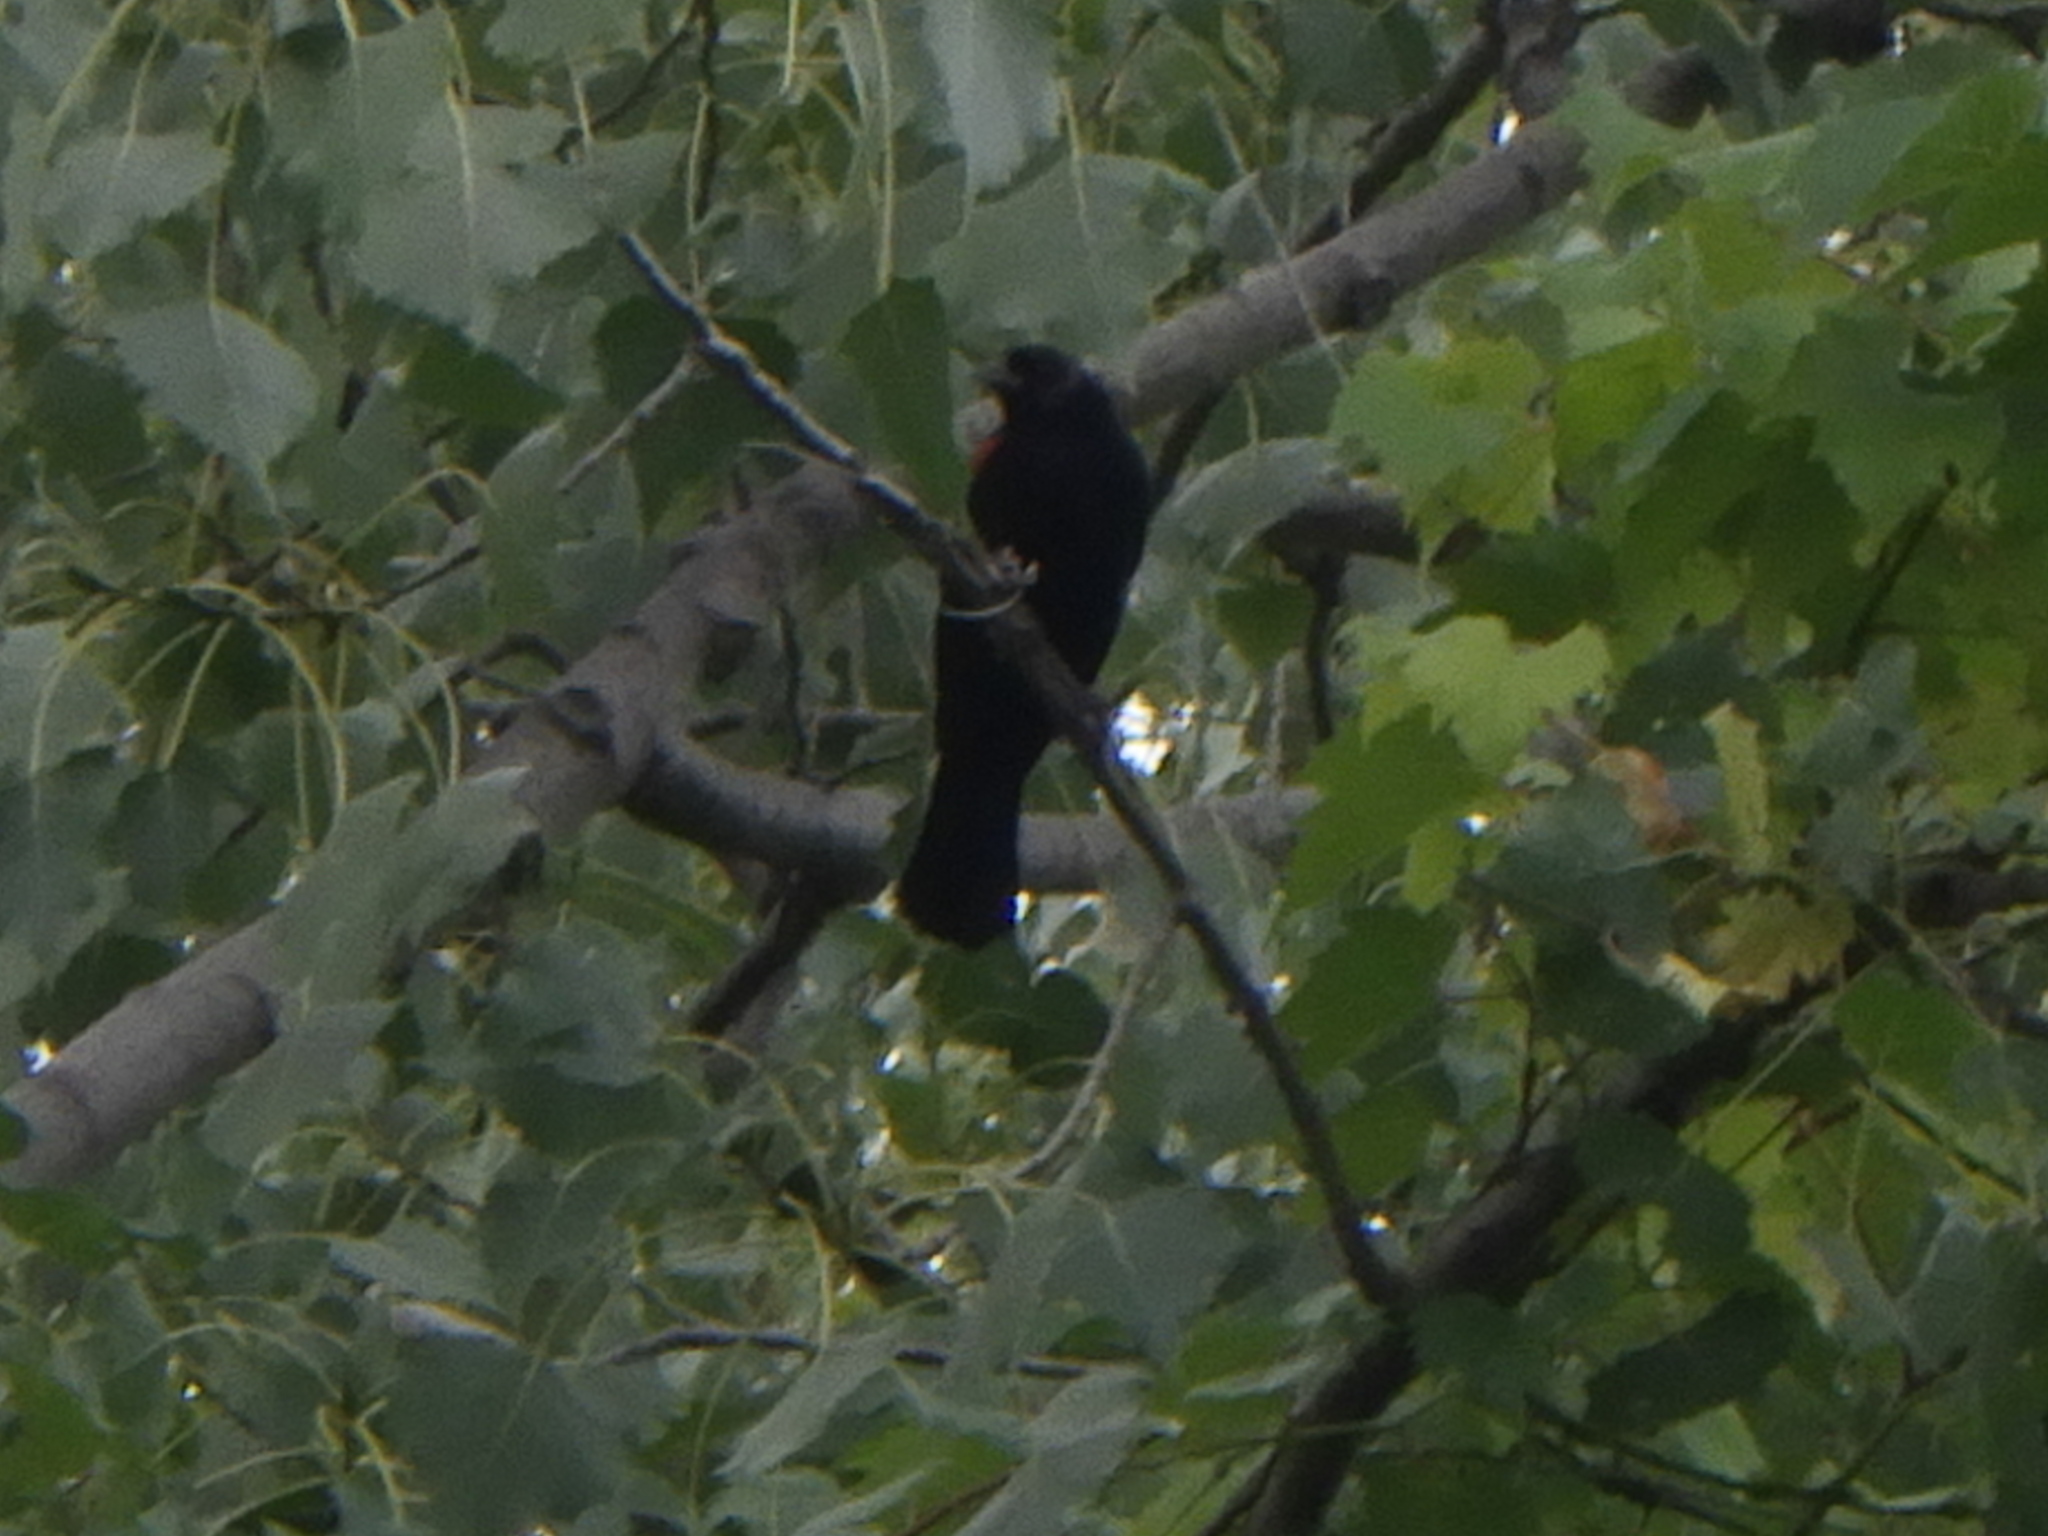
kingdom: Animalia
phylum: Chordata
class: Aves
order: Passeriformes
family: Icteridae
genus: Agelaius
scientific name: Agelaius phoeniceus
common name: Red-winged blackbird
